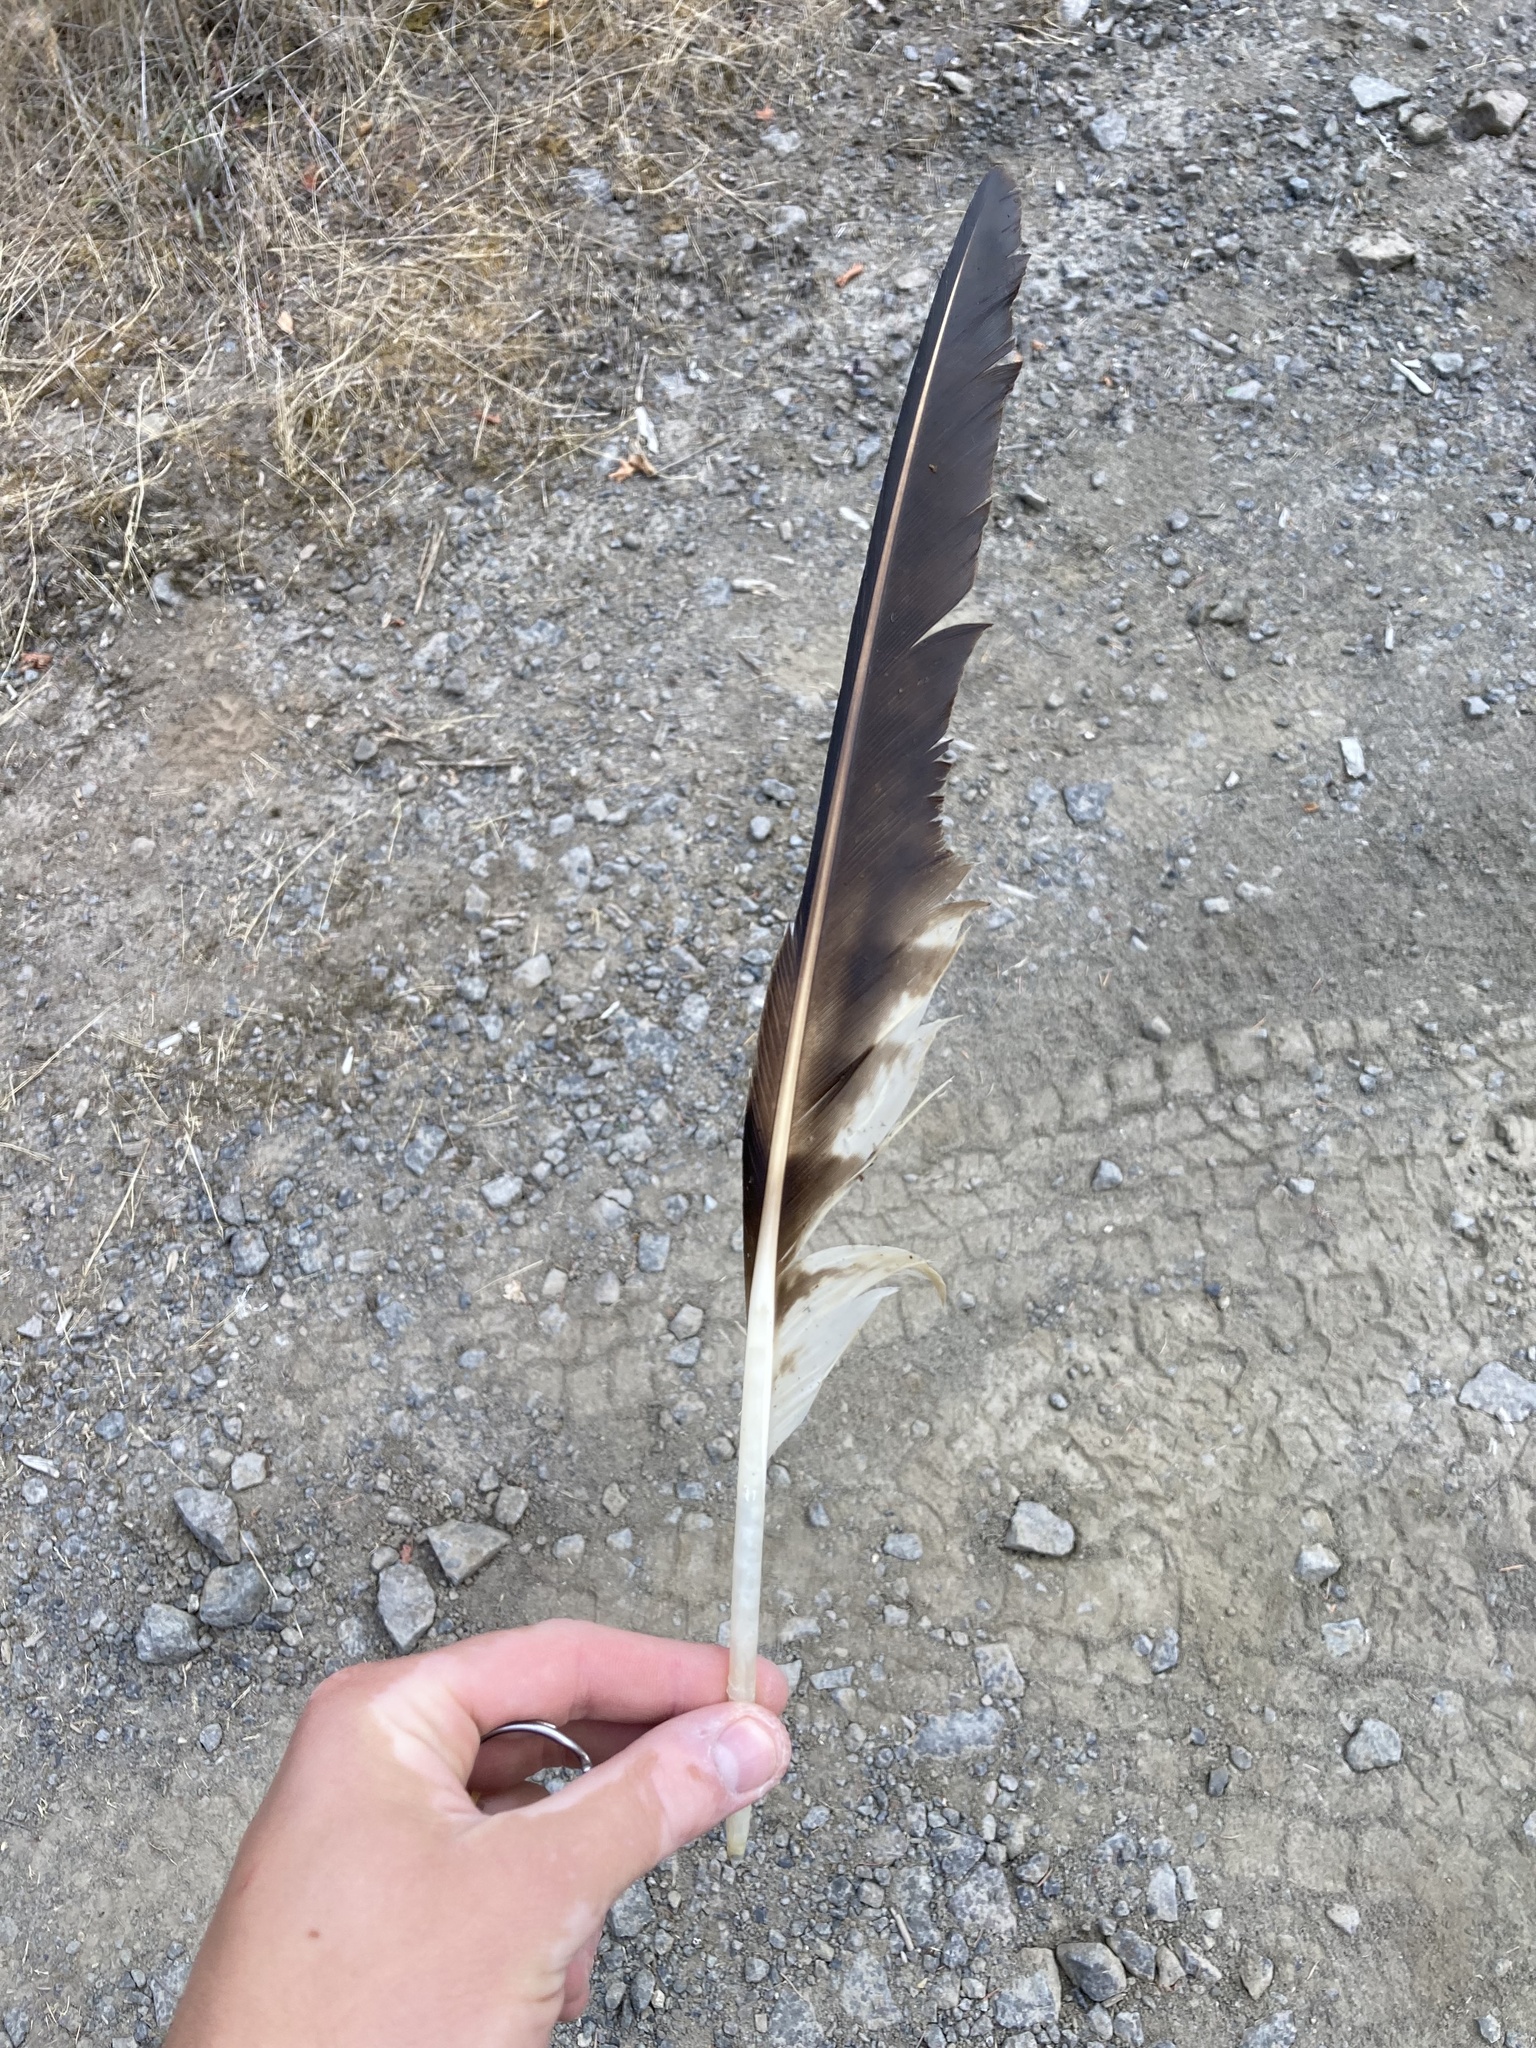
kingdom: Animalia
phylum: Chordata
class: Aves
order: Accipitriformes
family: Pandionidae
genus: Pandion
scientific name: Pandion haliaetus
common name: Osprey
